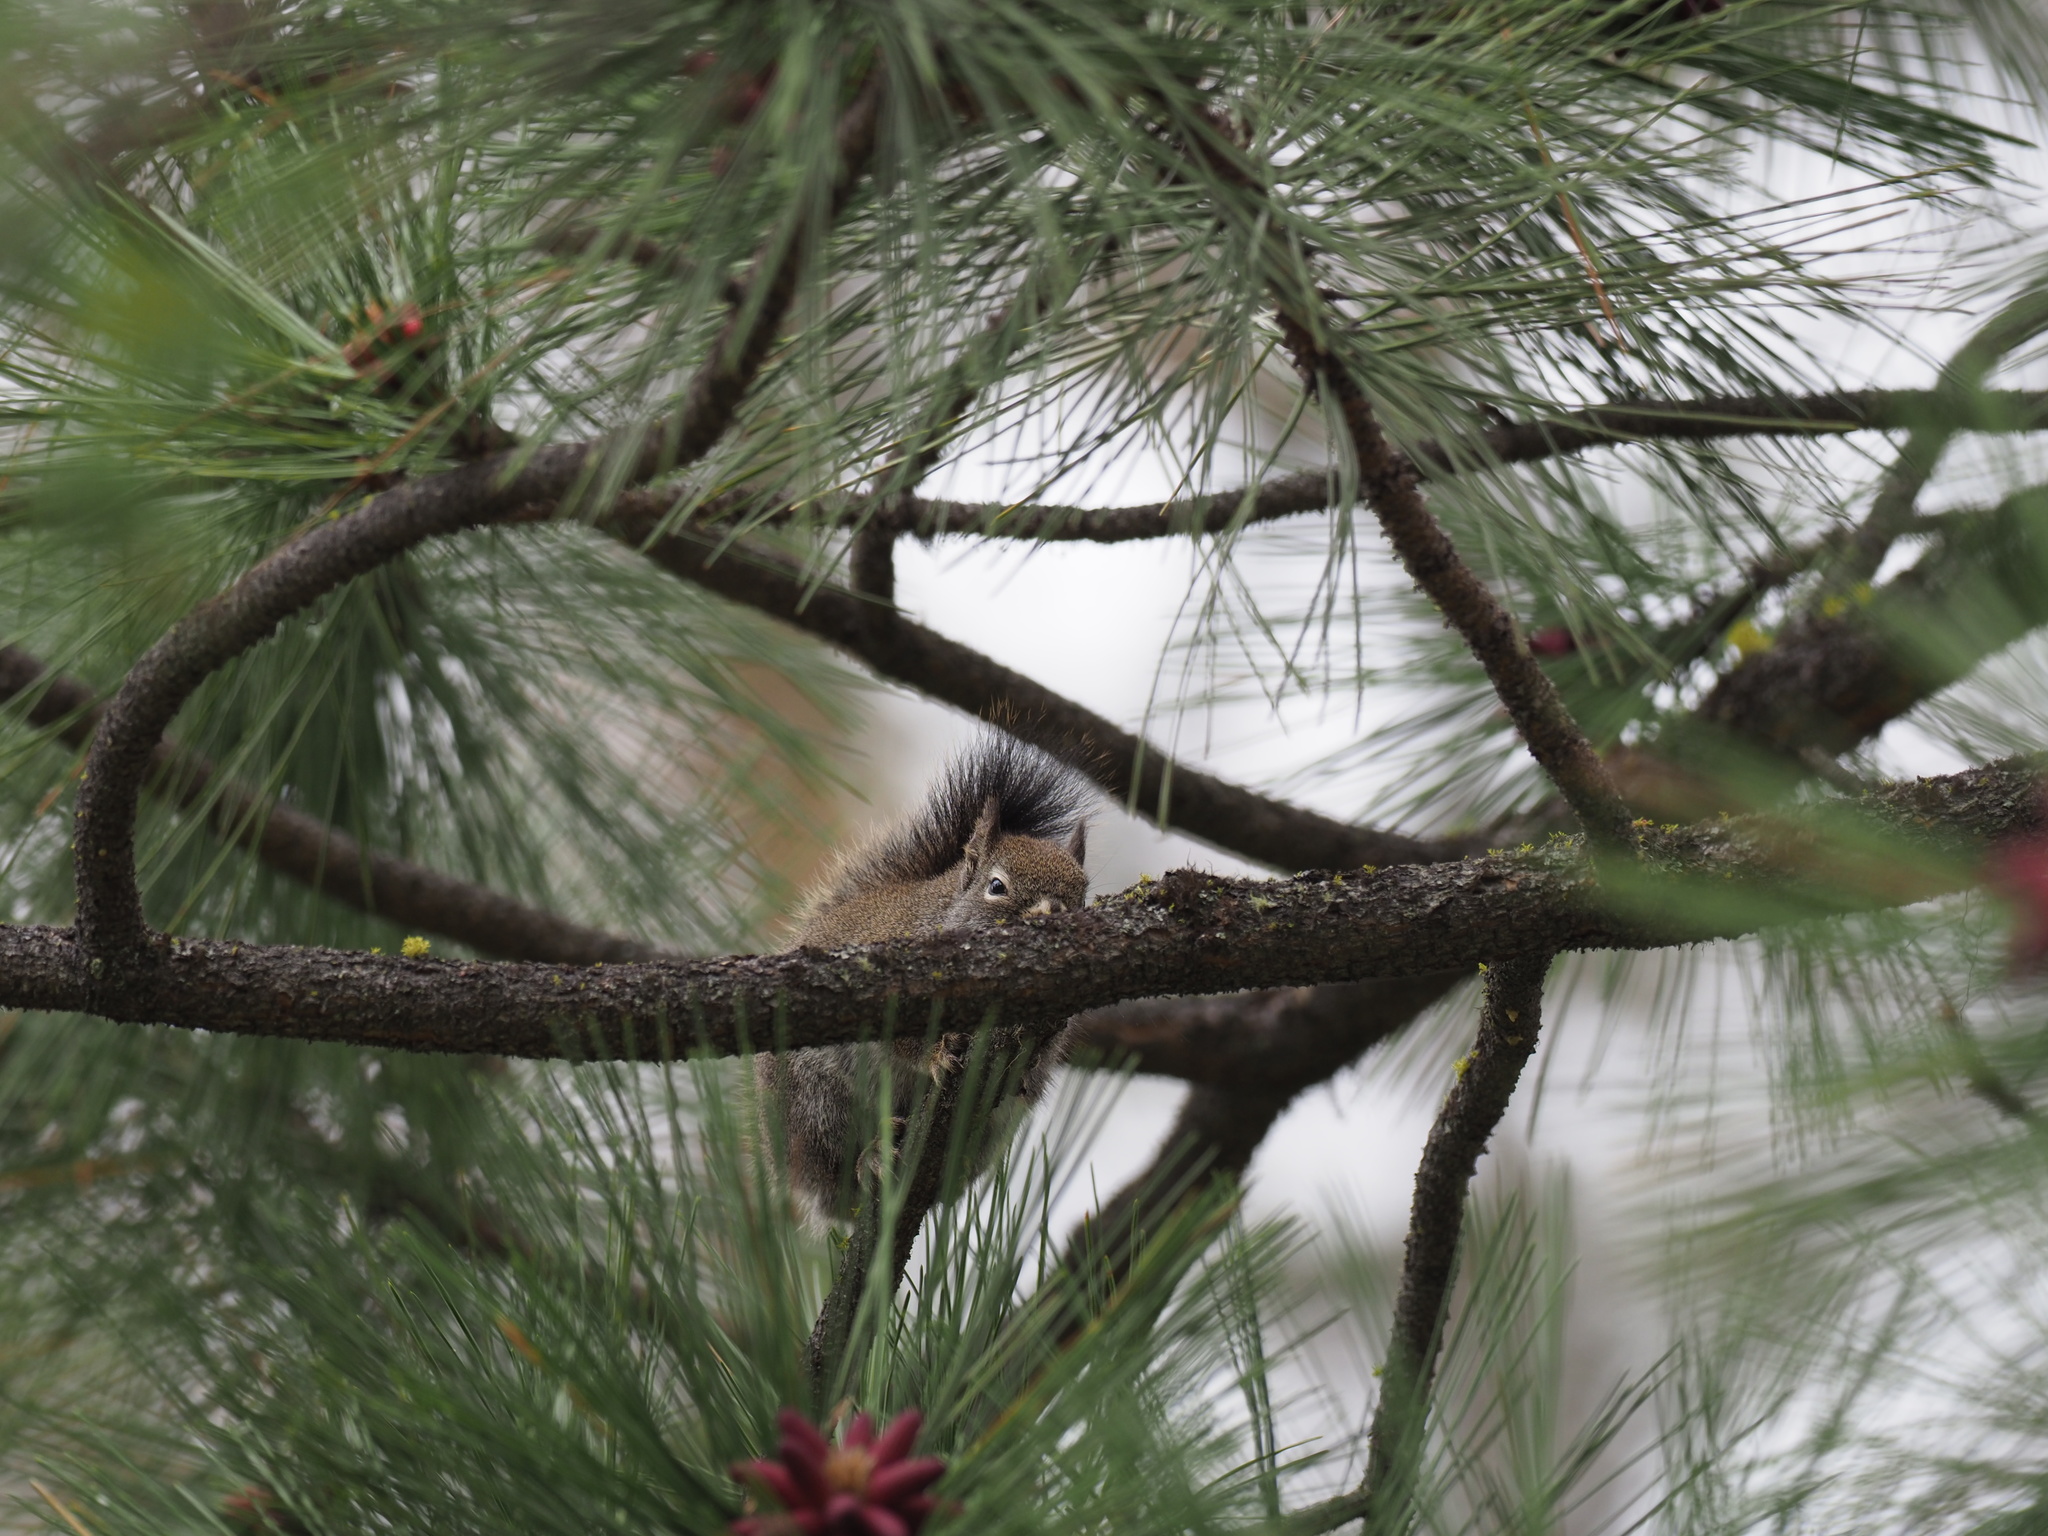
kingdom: Animalia
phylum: Chordata
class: Mammalia
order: Rodentia
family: Sciuridae
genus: Tamiasciurus
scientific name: Tamiasciurus hudsonicus
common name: Red squirrel
